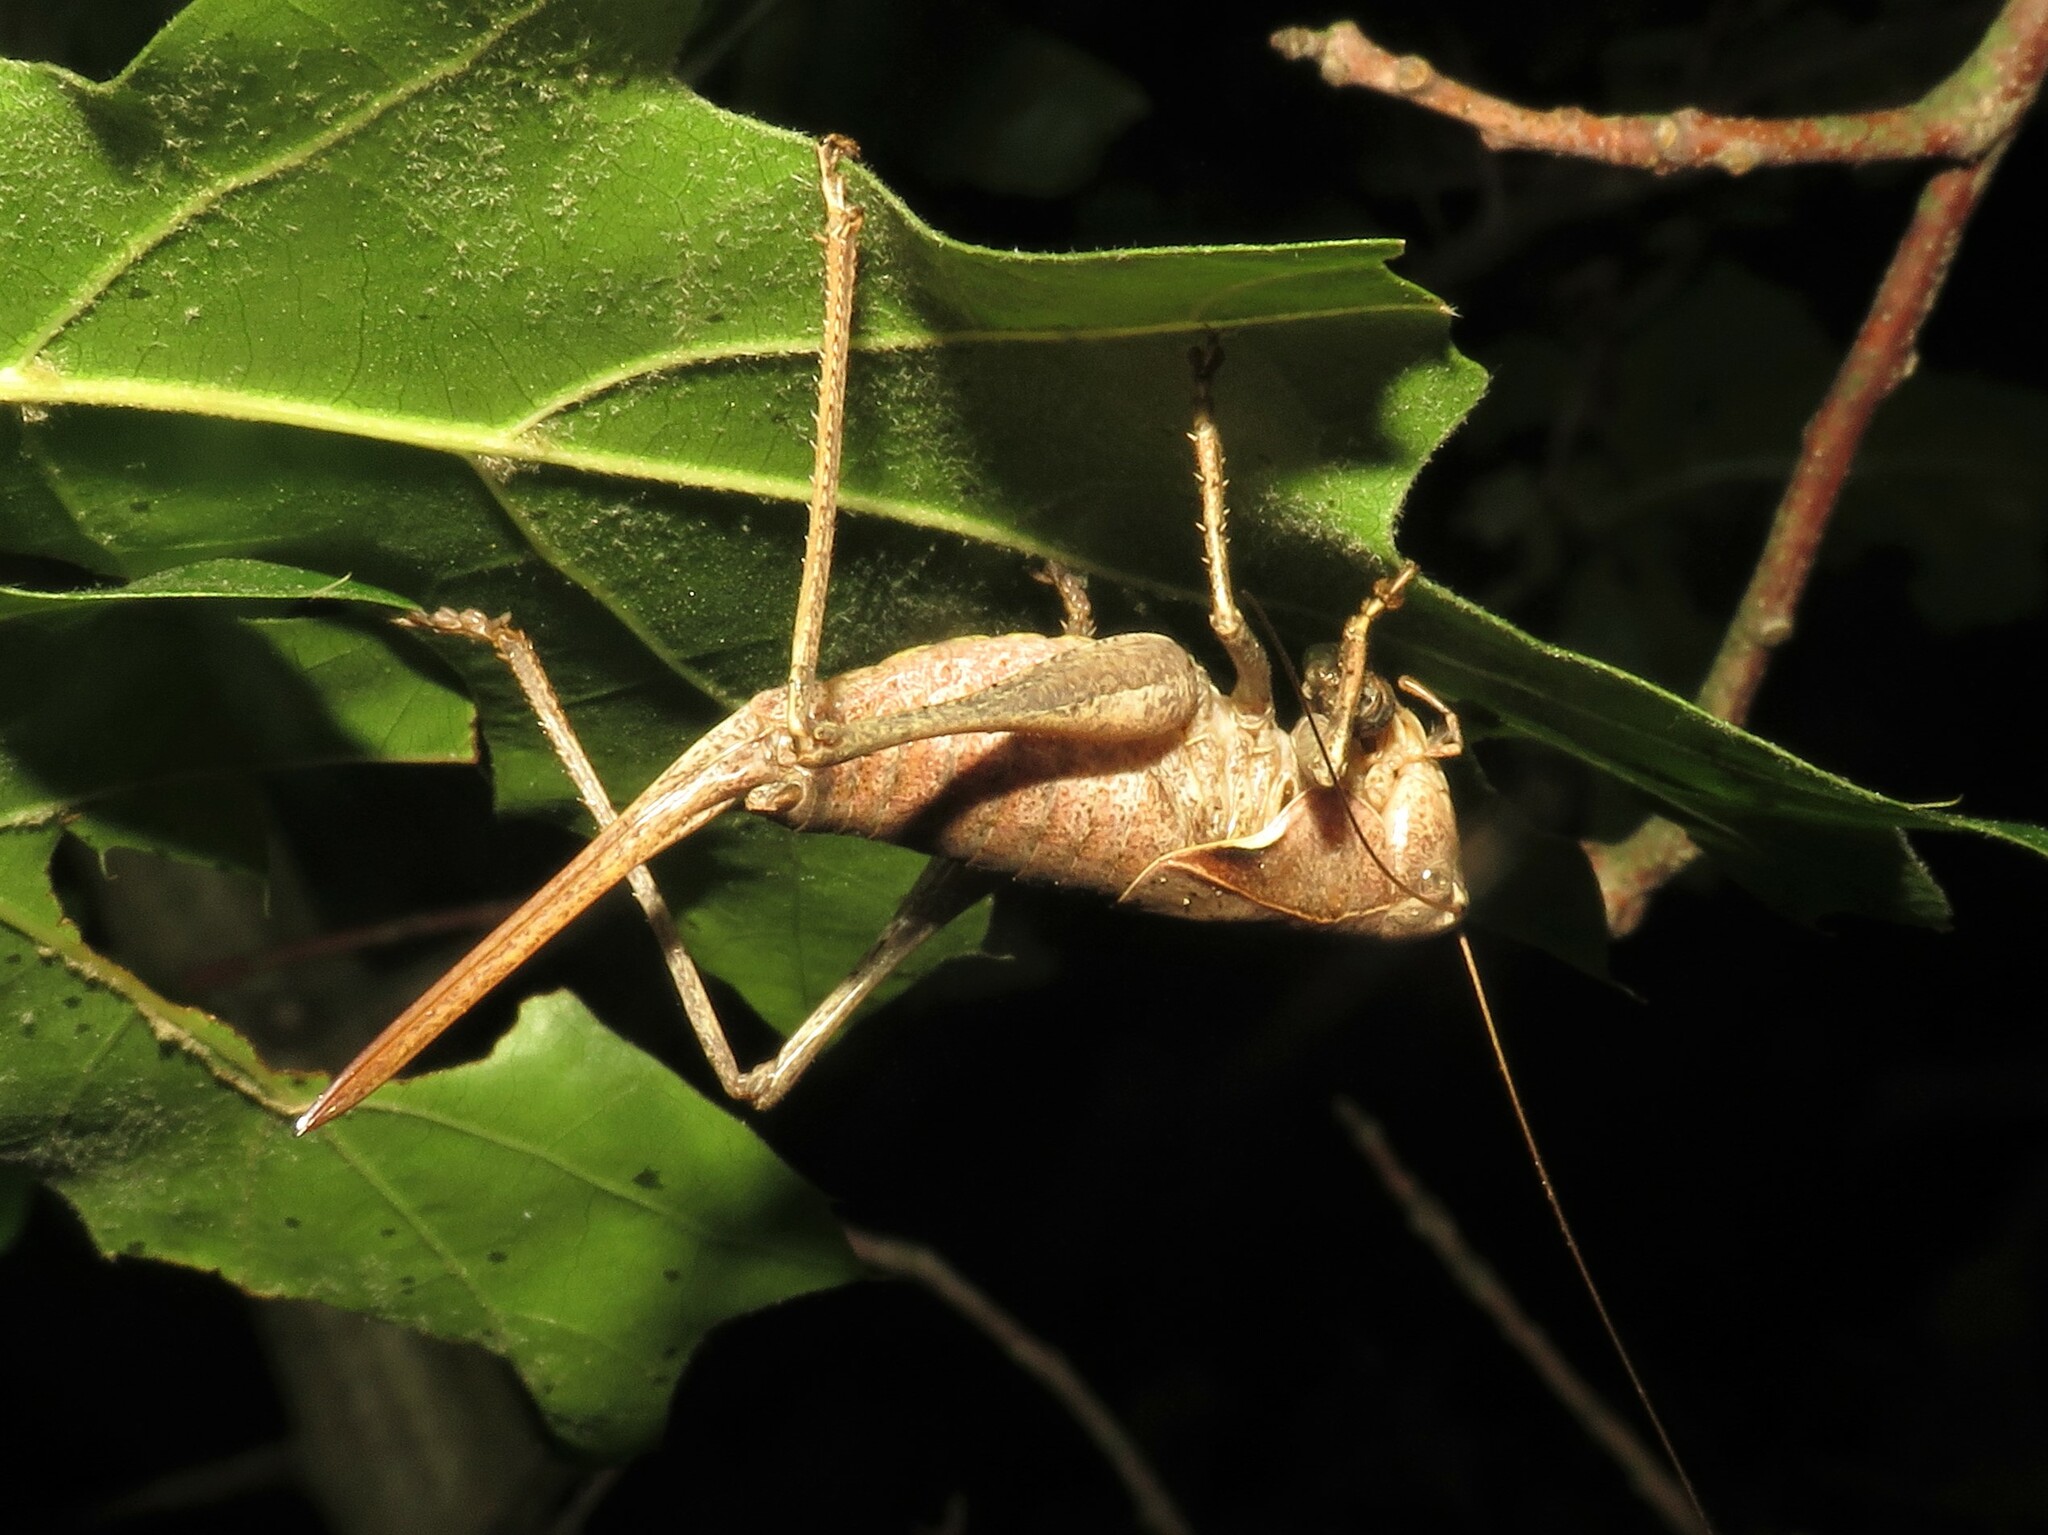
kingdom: Animalia
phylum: Arthropoda
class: Insecta
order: Orthoptera
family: Tettigoniidae
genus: Atlanticus
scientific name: Atlanticus davisi
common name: Davis's shield-bearer
